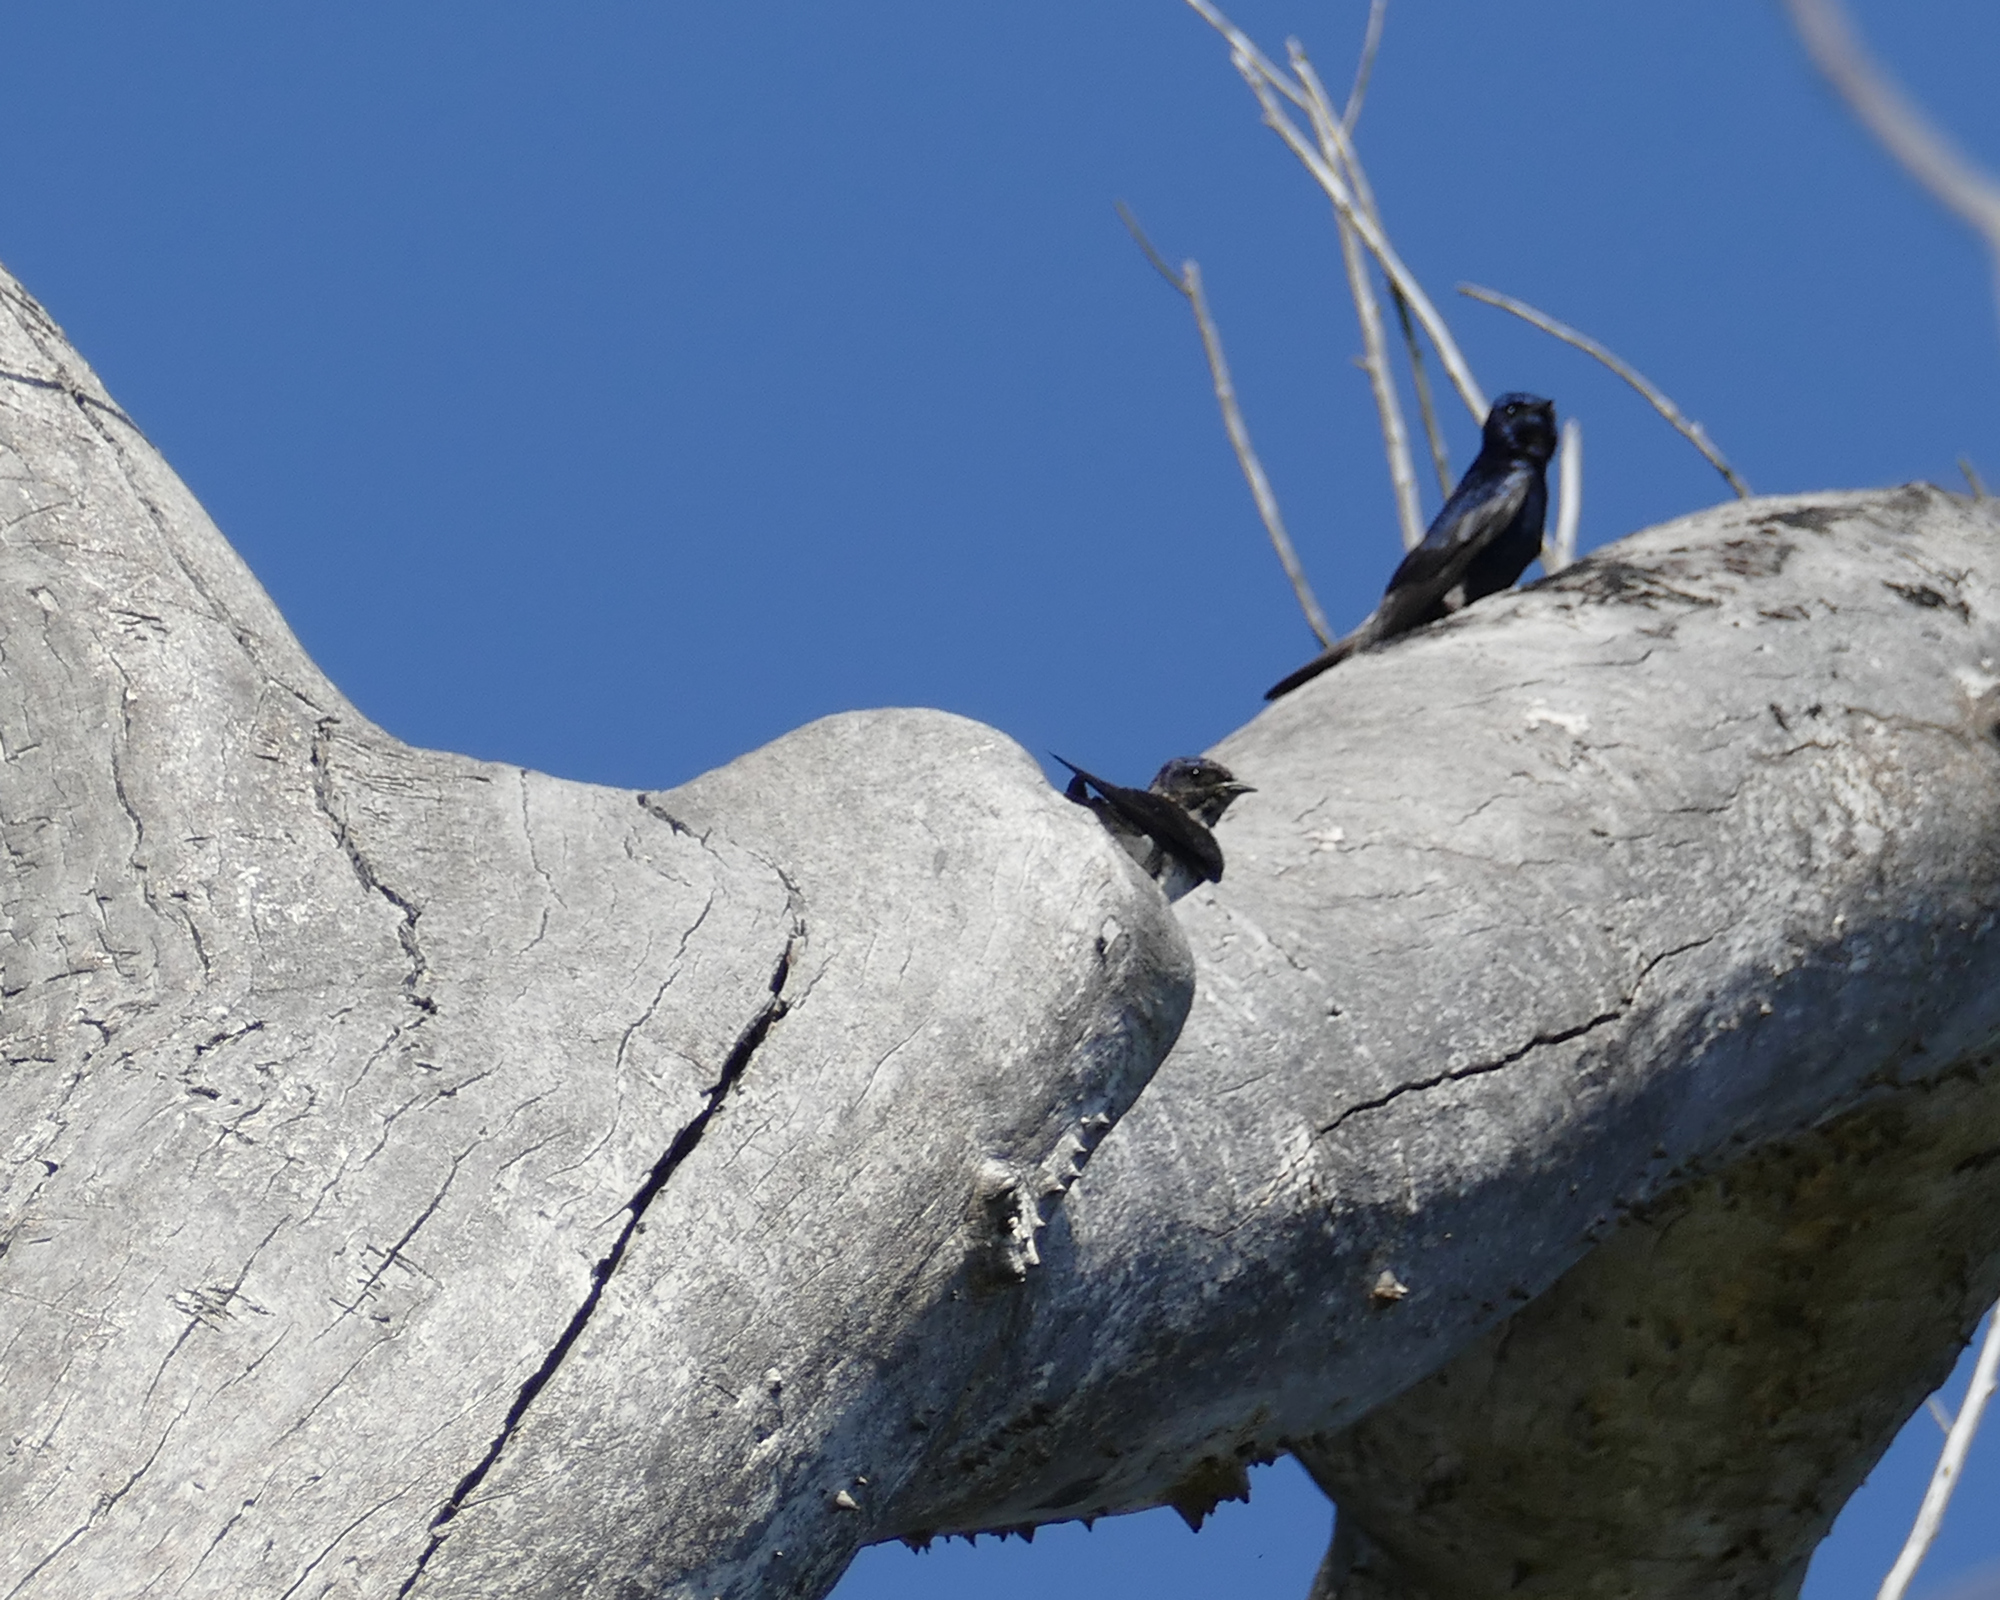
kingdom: Animalia
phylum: Chordata
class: Aves
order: Passeriformes
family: Hirundinidae
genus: Progne
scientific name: Progne subis
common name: Purple martin
